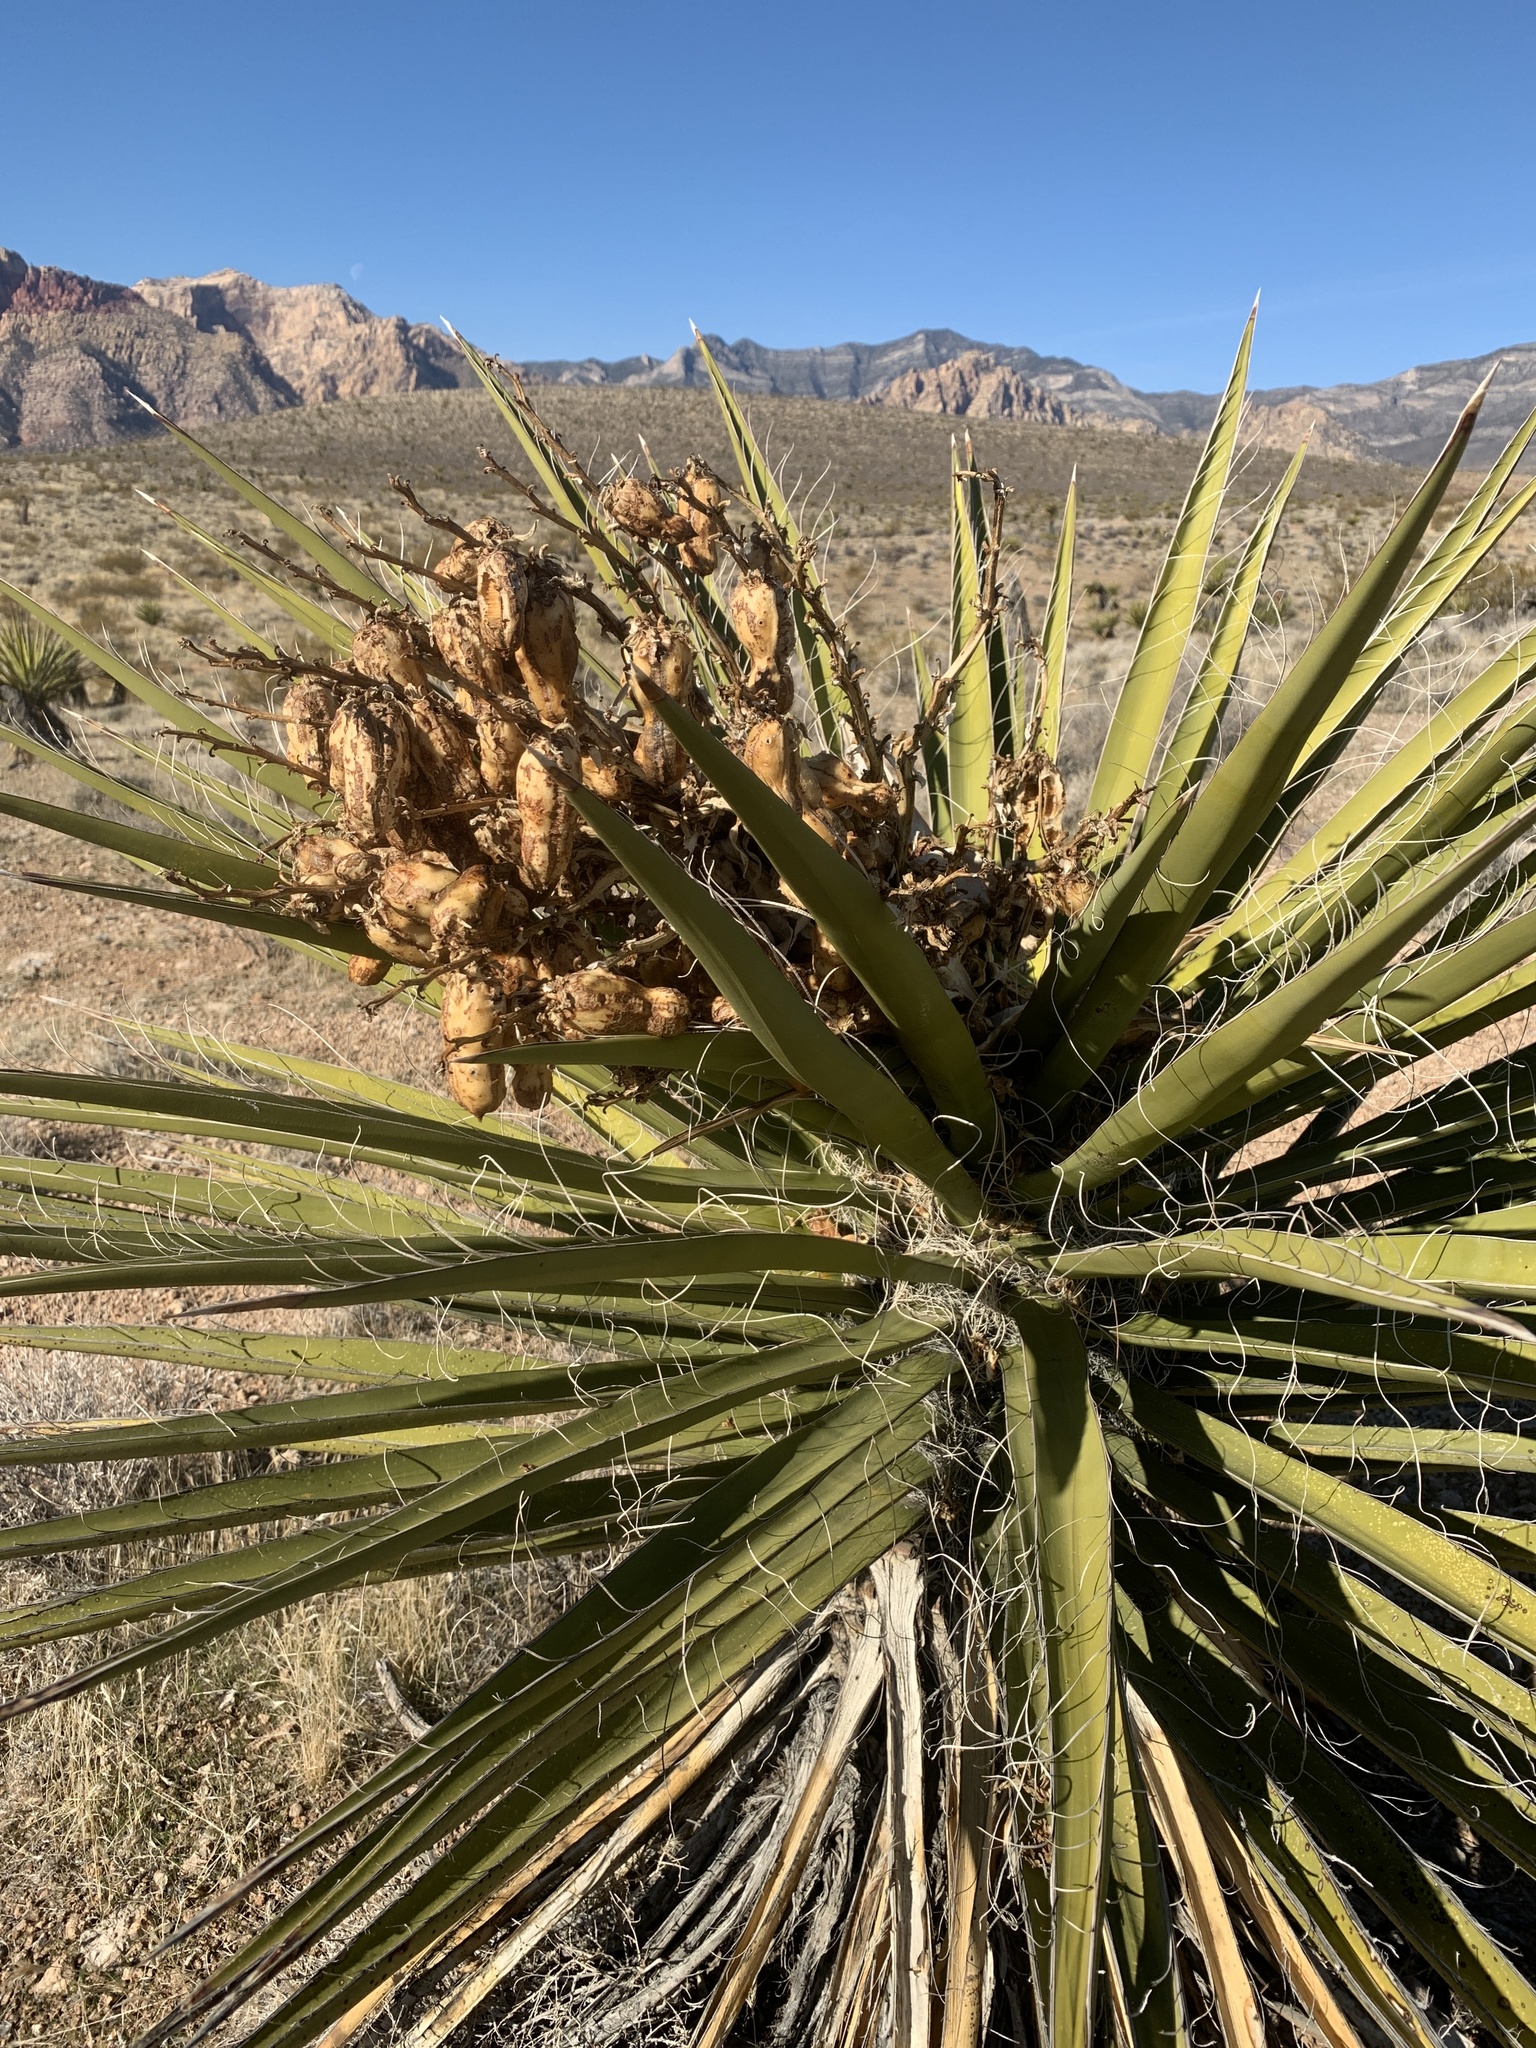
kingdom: Plantae
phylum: Tracheophyta
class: Liliopsida
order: Asparagales
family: Asparagaceae
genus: Yucca
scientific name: Yucca schidigera
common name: Mojave yucca
